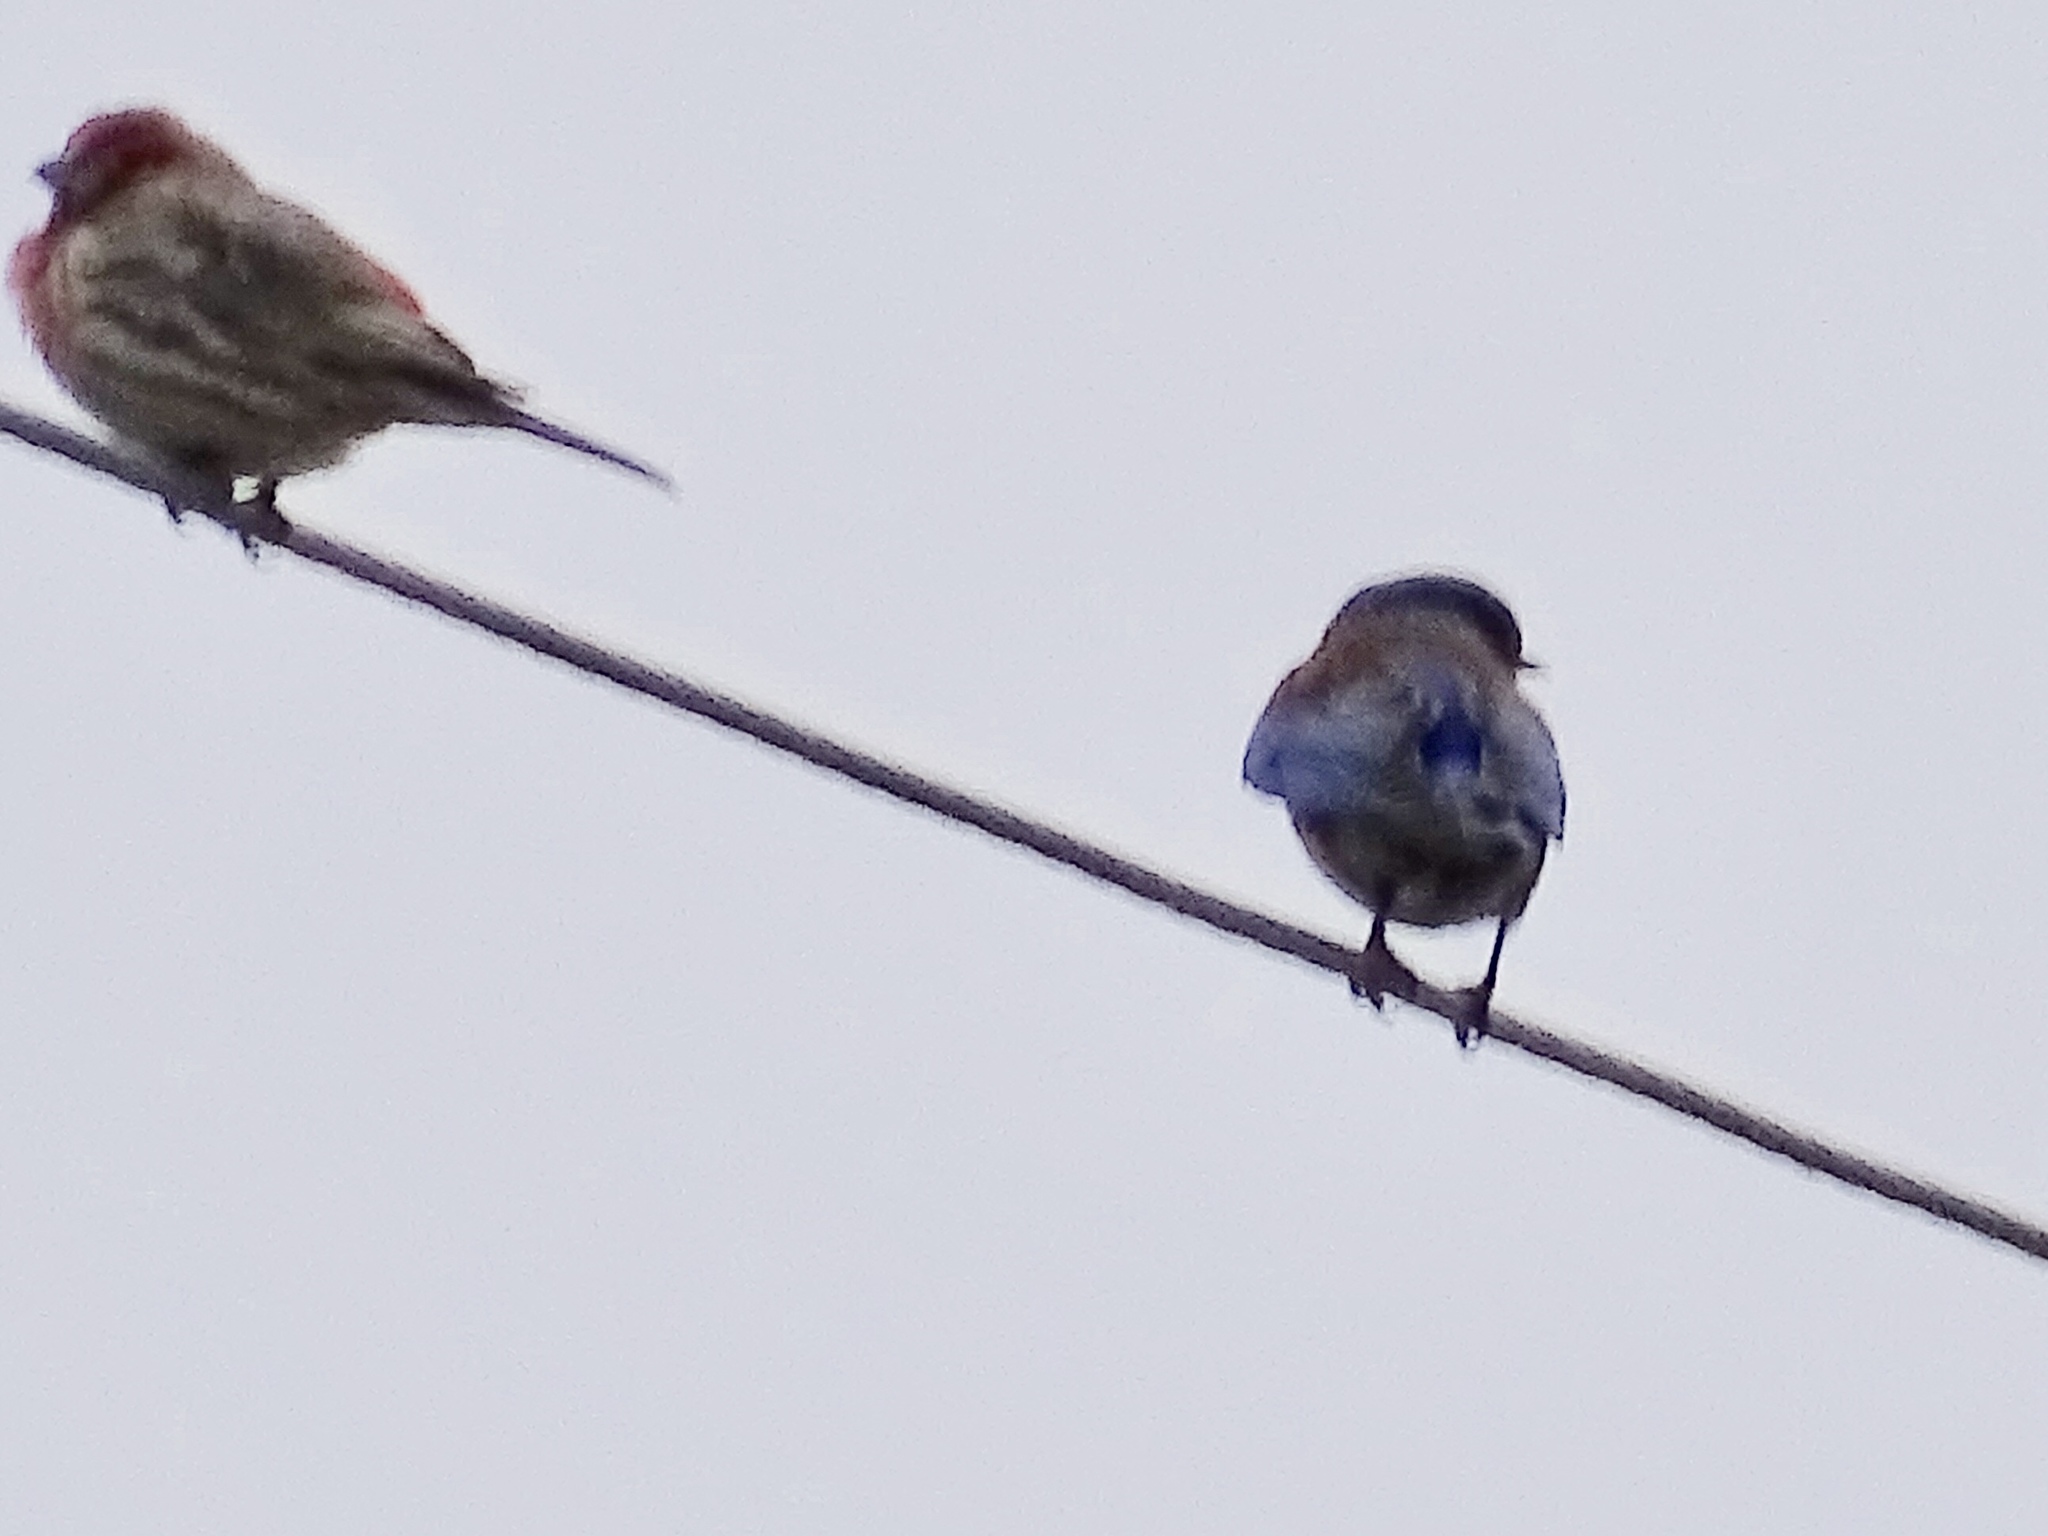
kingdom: Animalia
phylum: Chordata
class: Aves
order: Passeriformes
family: Turdidae
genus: Sialia
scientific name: Sialia mexicana
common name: Western bluebird
